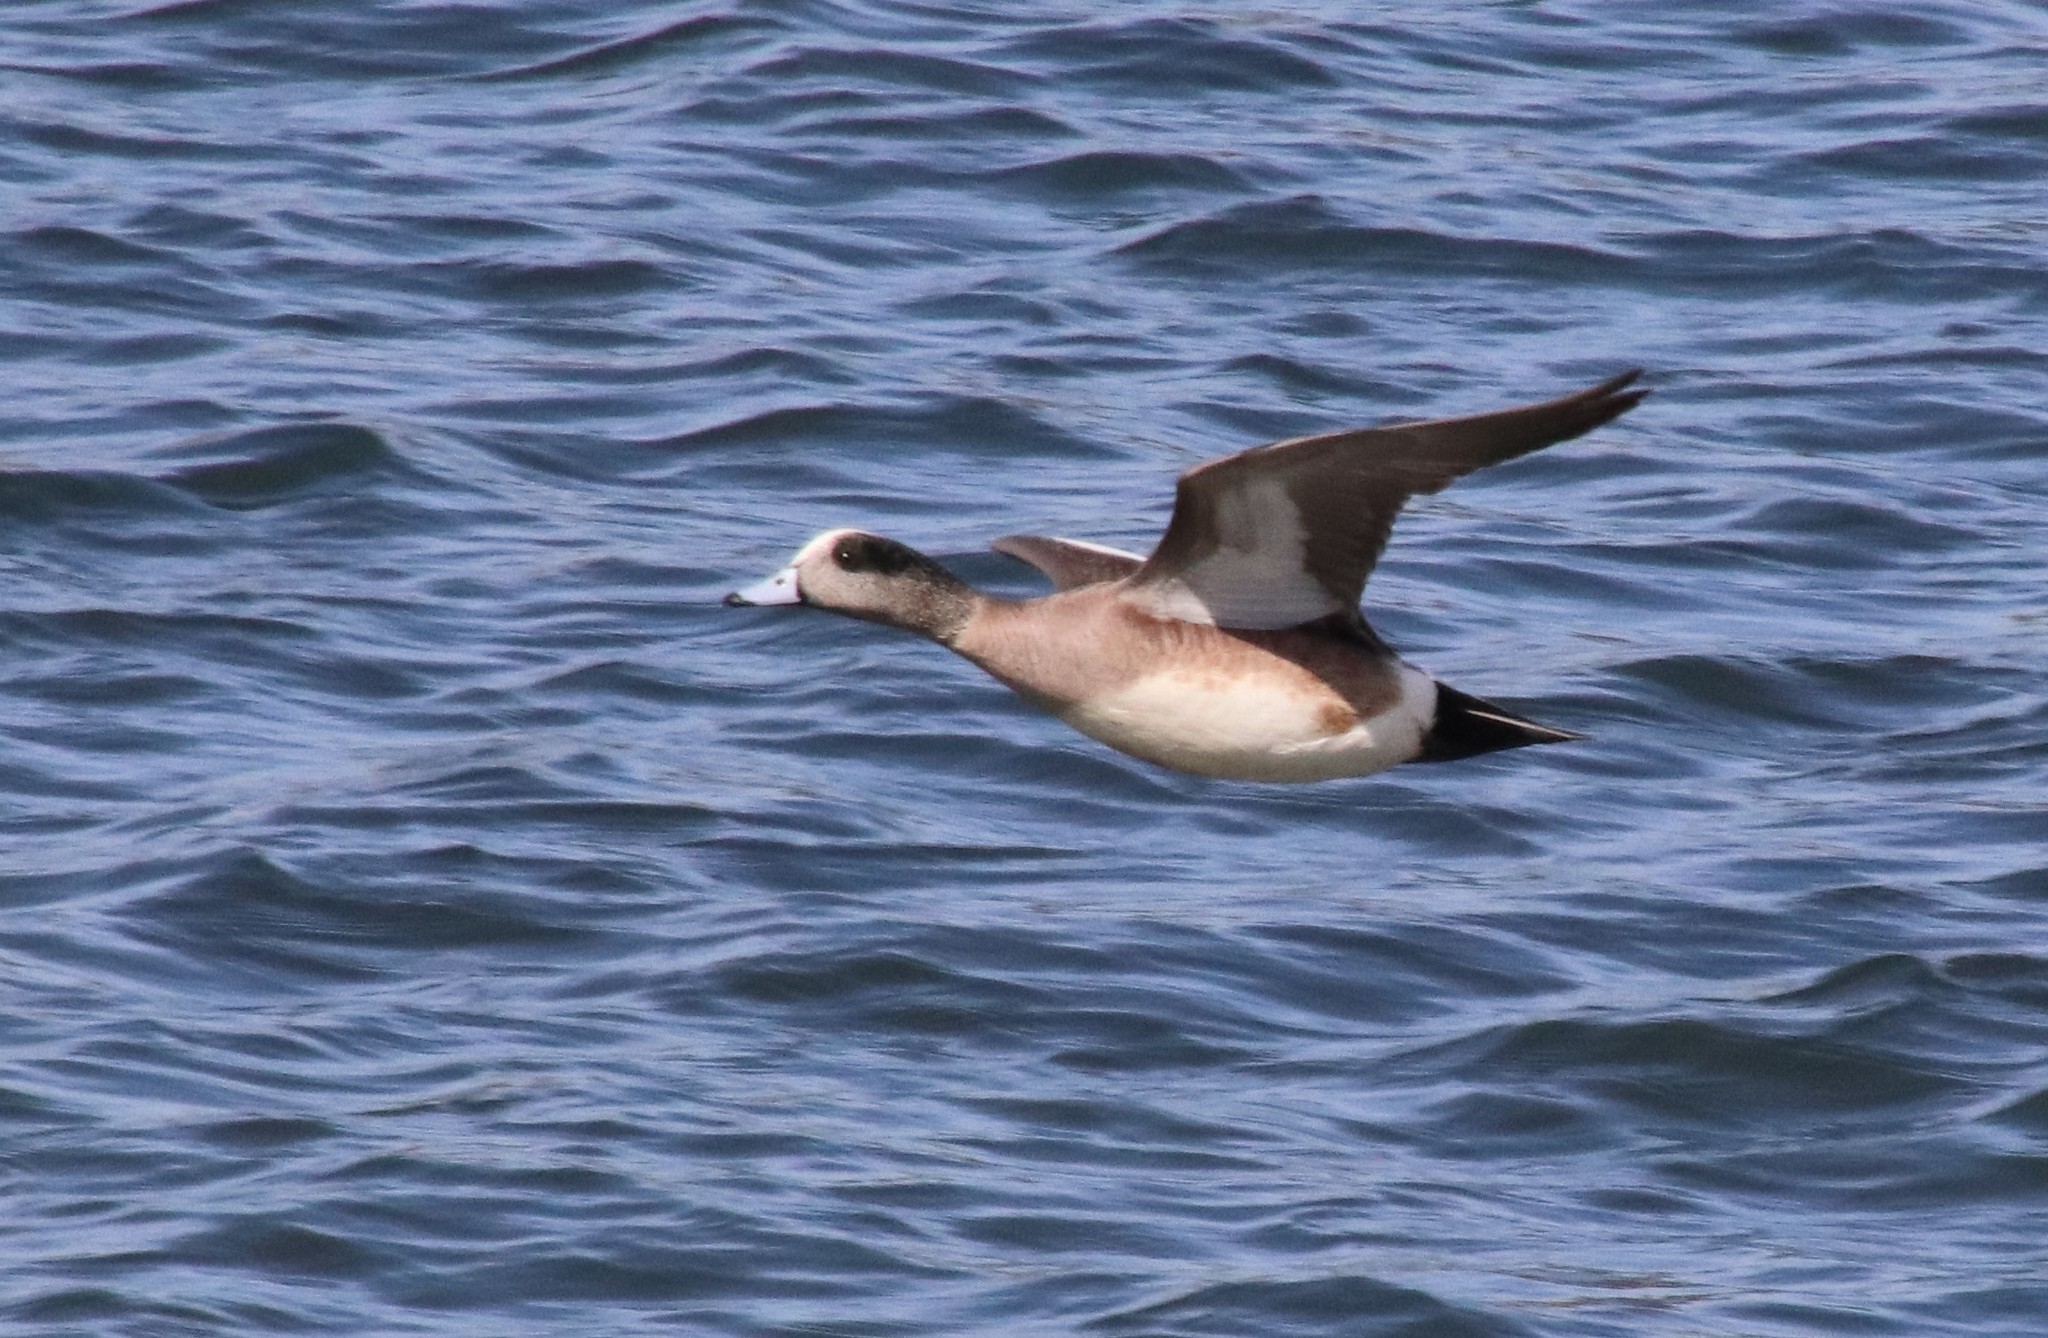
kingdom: Animalia
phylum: Chordata
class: Aves
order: Anseriformes
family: Anatidae
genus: Mareca
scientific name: Mareca americana
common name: American wigeon
